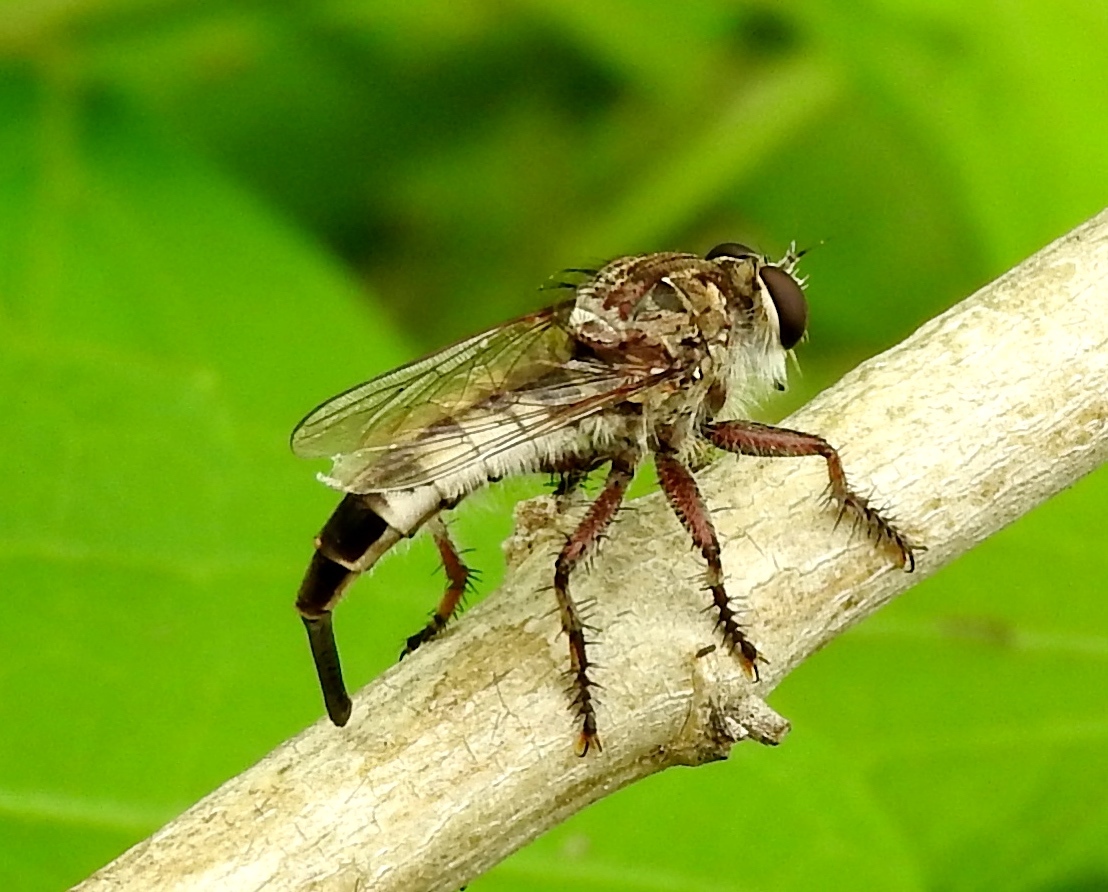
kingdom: Animalia
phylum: Arthropoda
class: Insecta
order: Diptera
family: Asilidae
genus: Efferia
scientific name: Efferia
